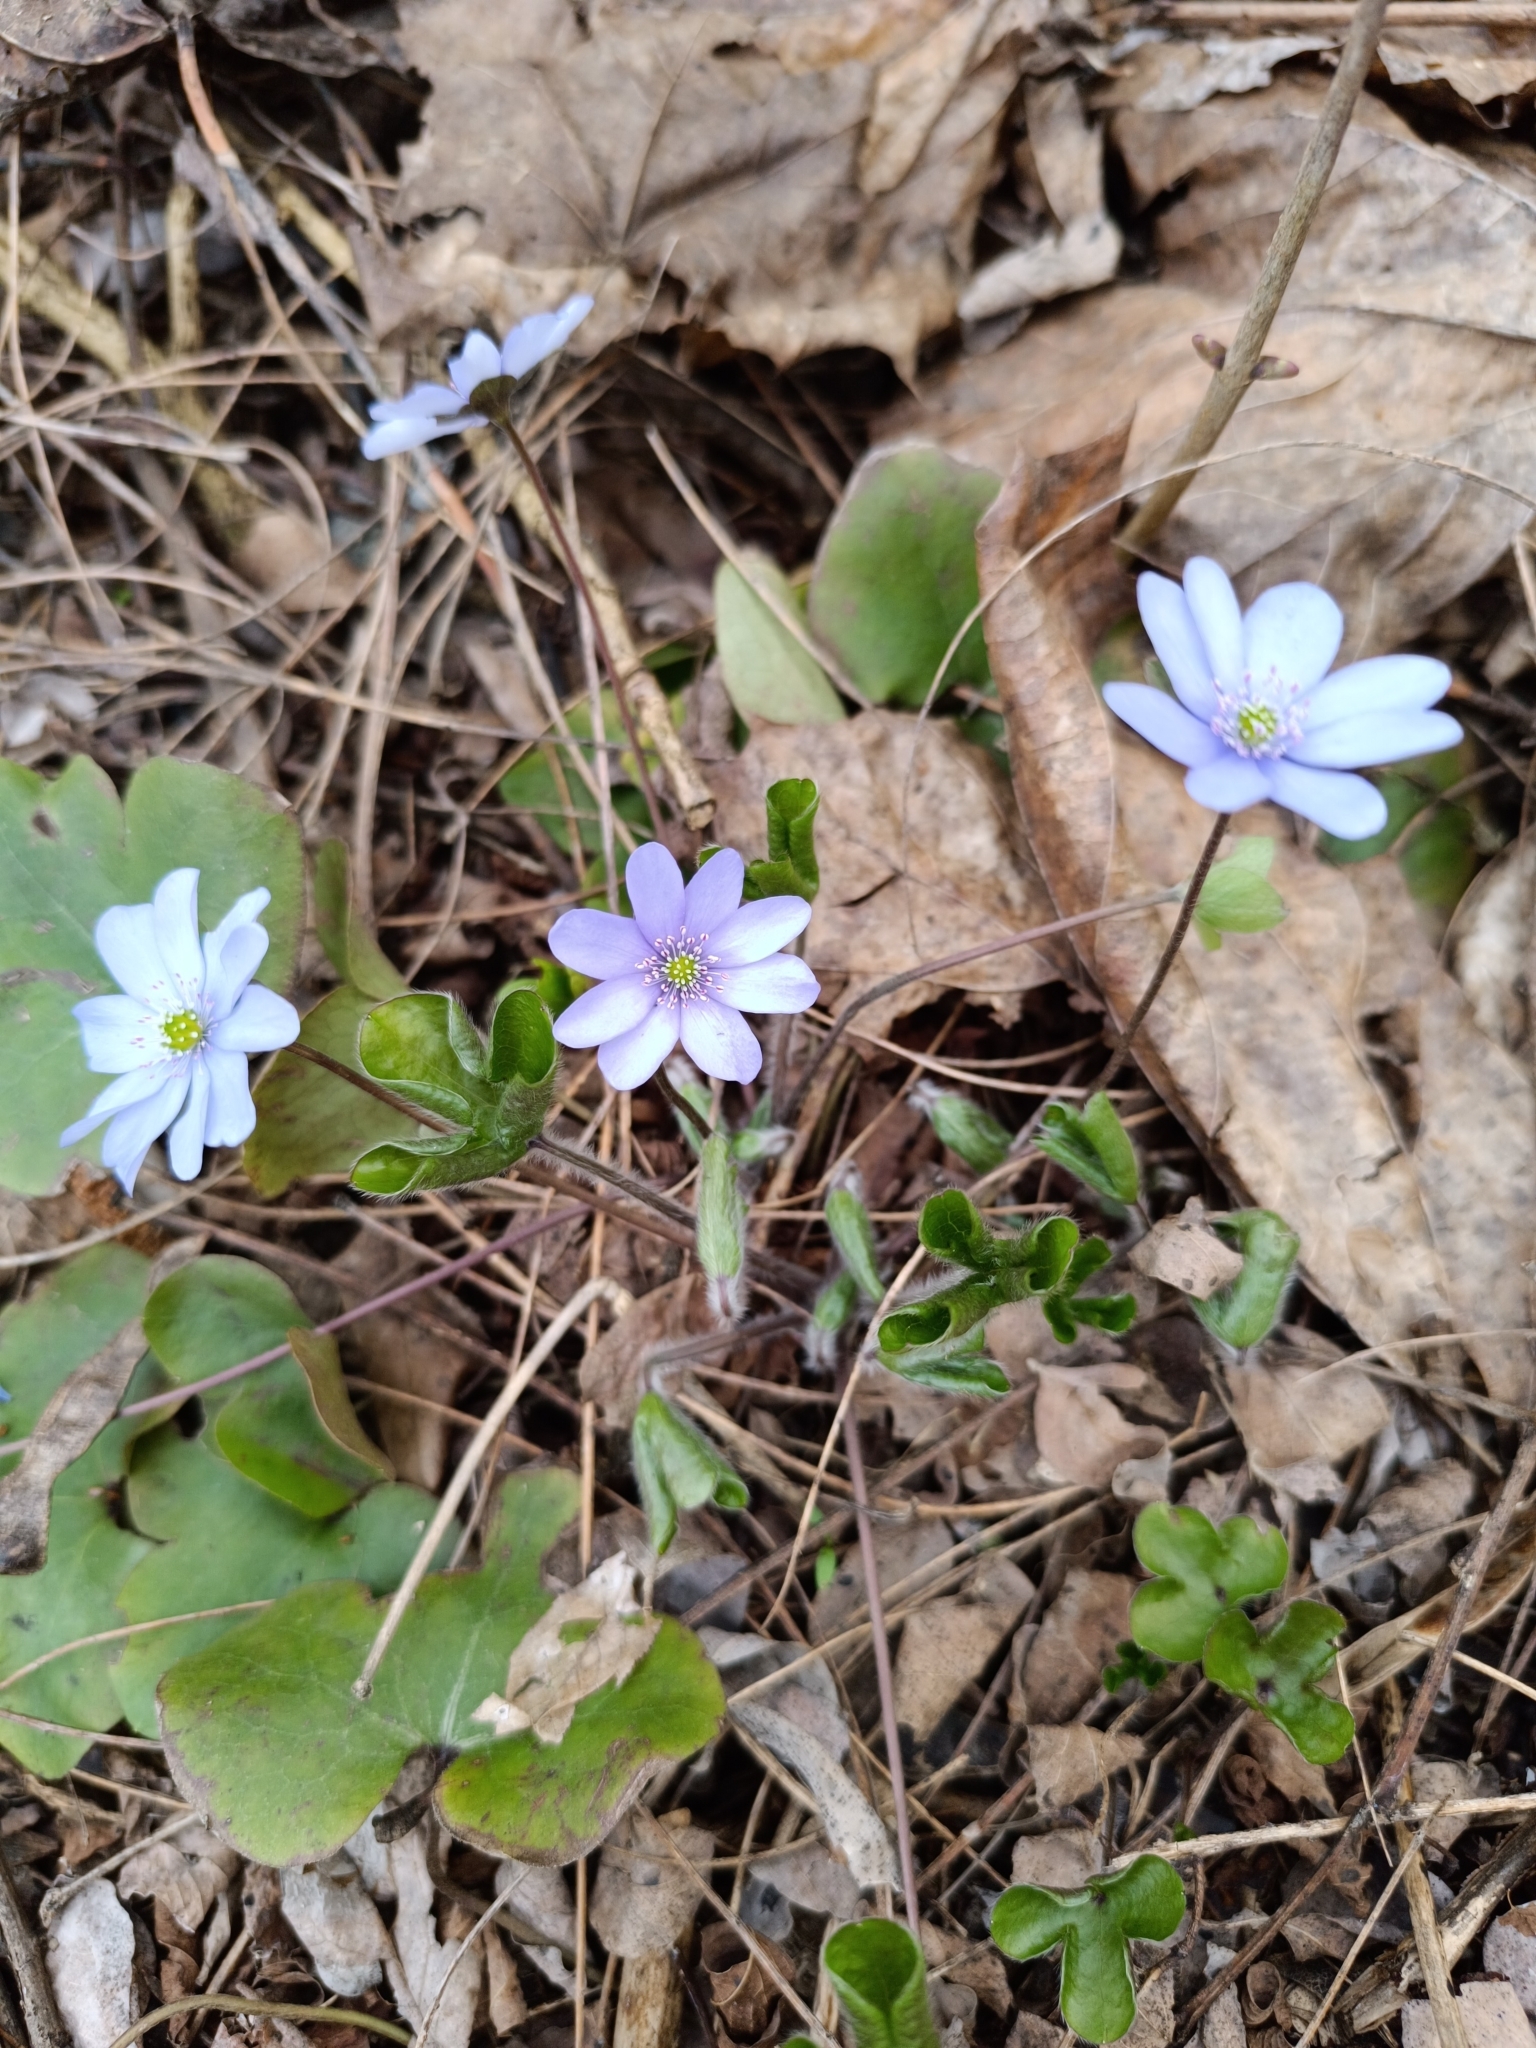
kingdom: Plantae
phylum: Tracheophyta
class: Magnoliopsida
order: Ranunculales
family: Ranunculaceae
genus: Hepatica
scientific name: Hepatica nobilis
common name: Liverleaf
